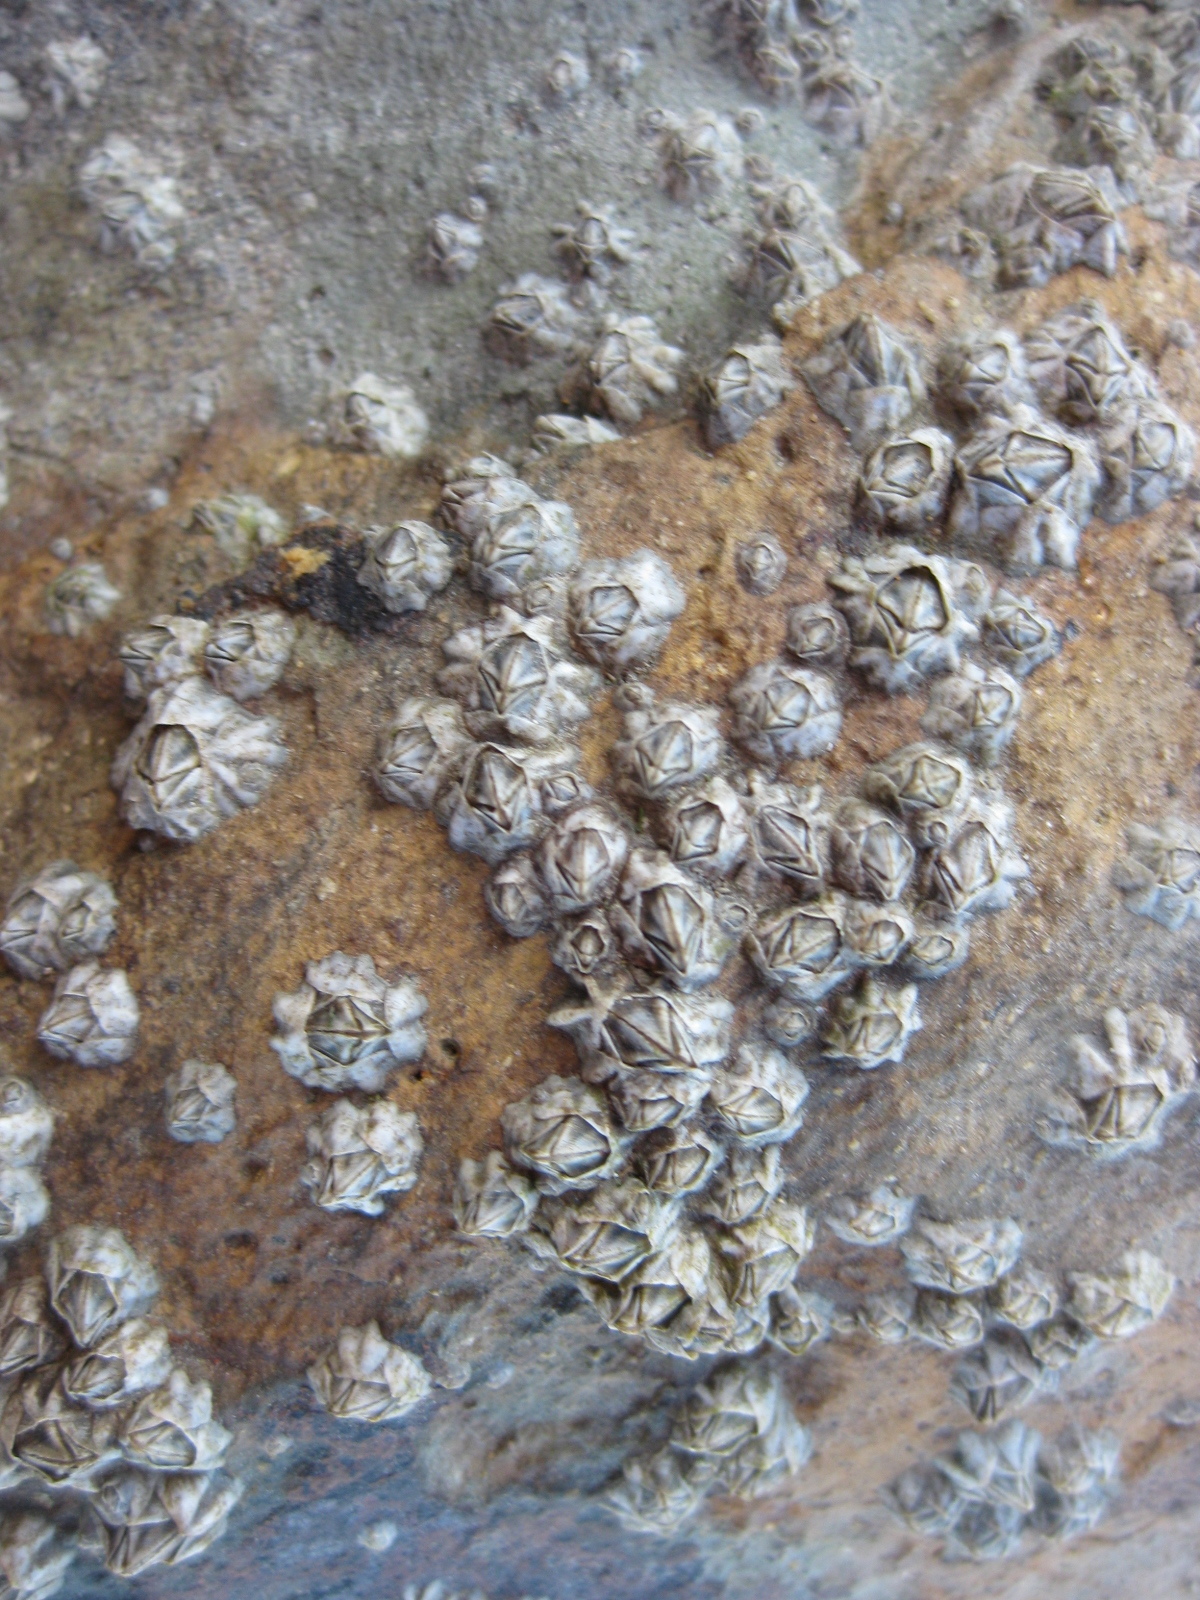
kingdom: Animalia
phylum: Arthropoda
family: Elminiidae
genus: Austrominius
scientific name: Austrominius modestus
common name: Australasian barnacle
